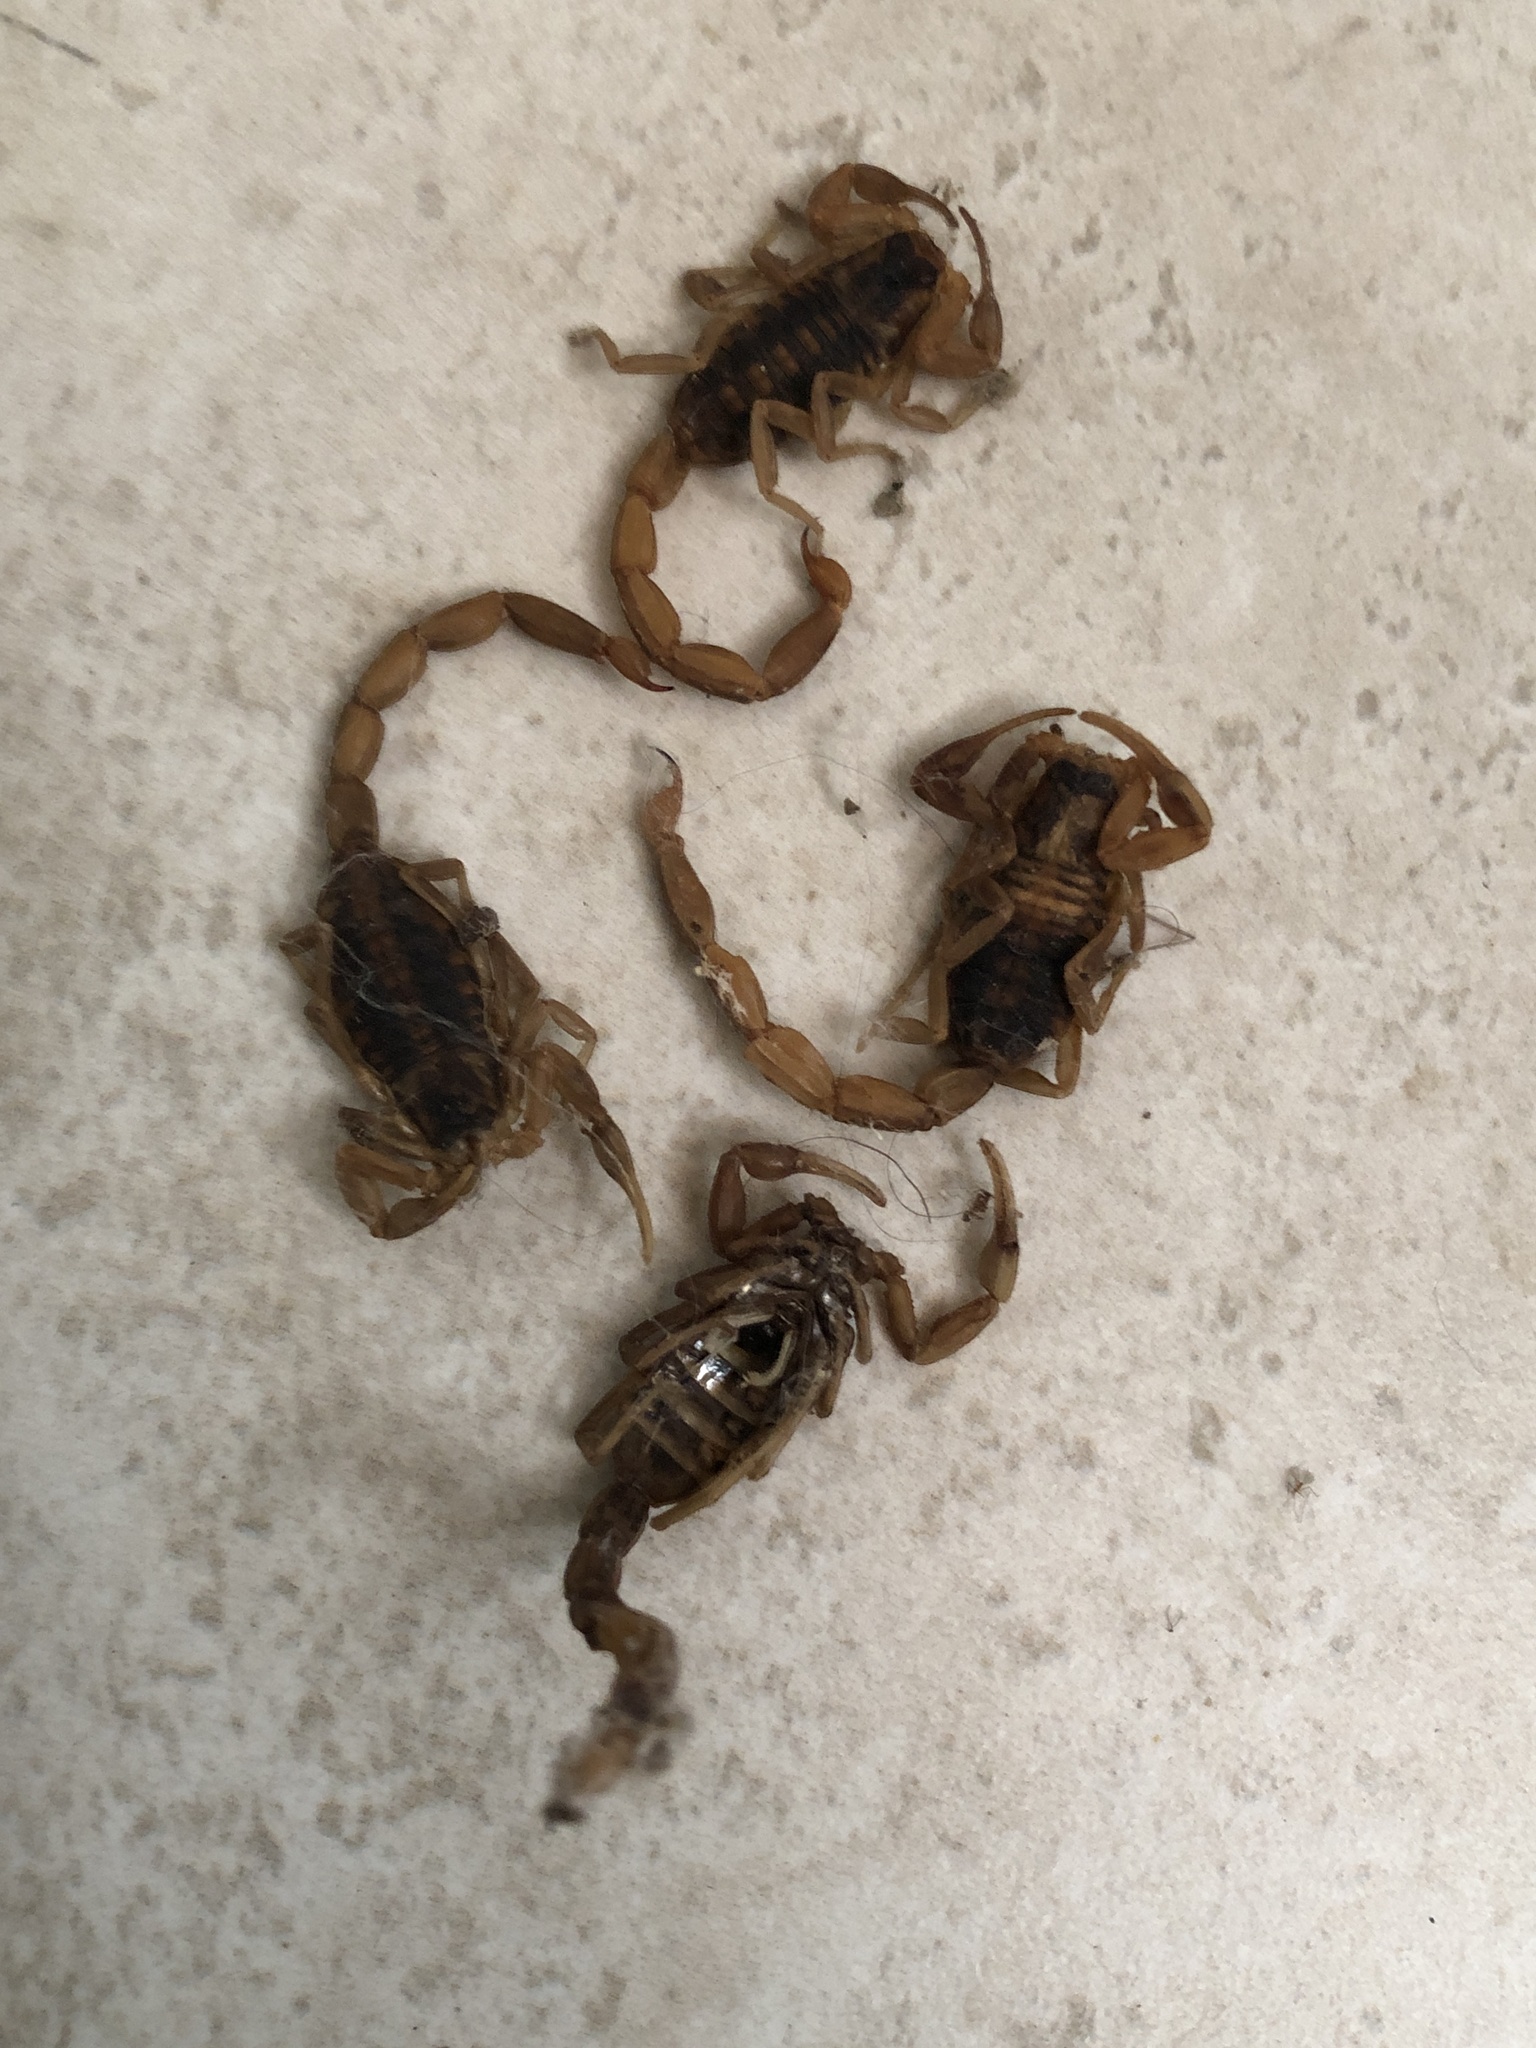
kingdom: Animalia
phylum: Arthropoda
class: Arachnida
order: Scorpiones
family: Buthidae
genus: Centruroides
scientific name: Centruroides vittatus
